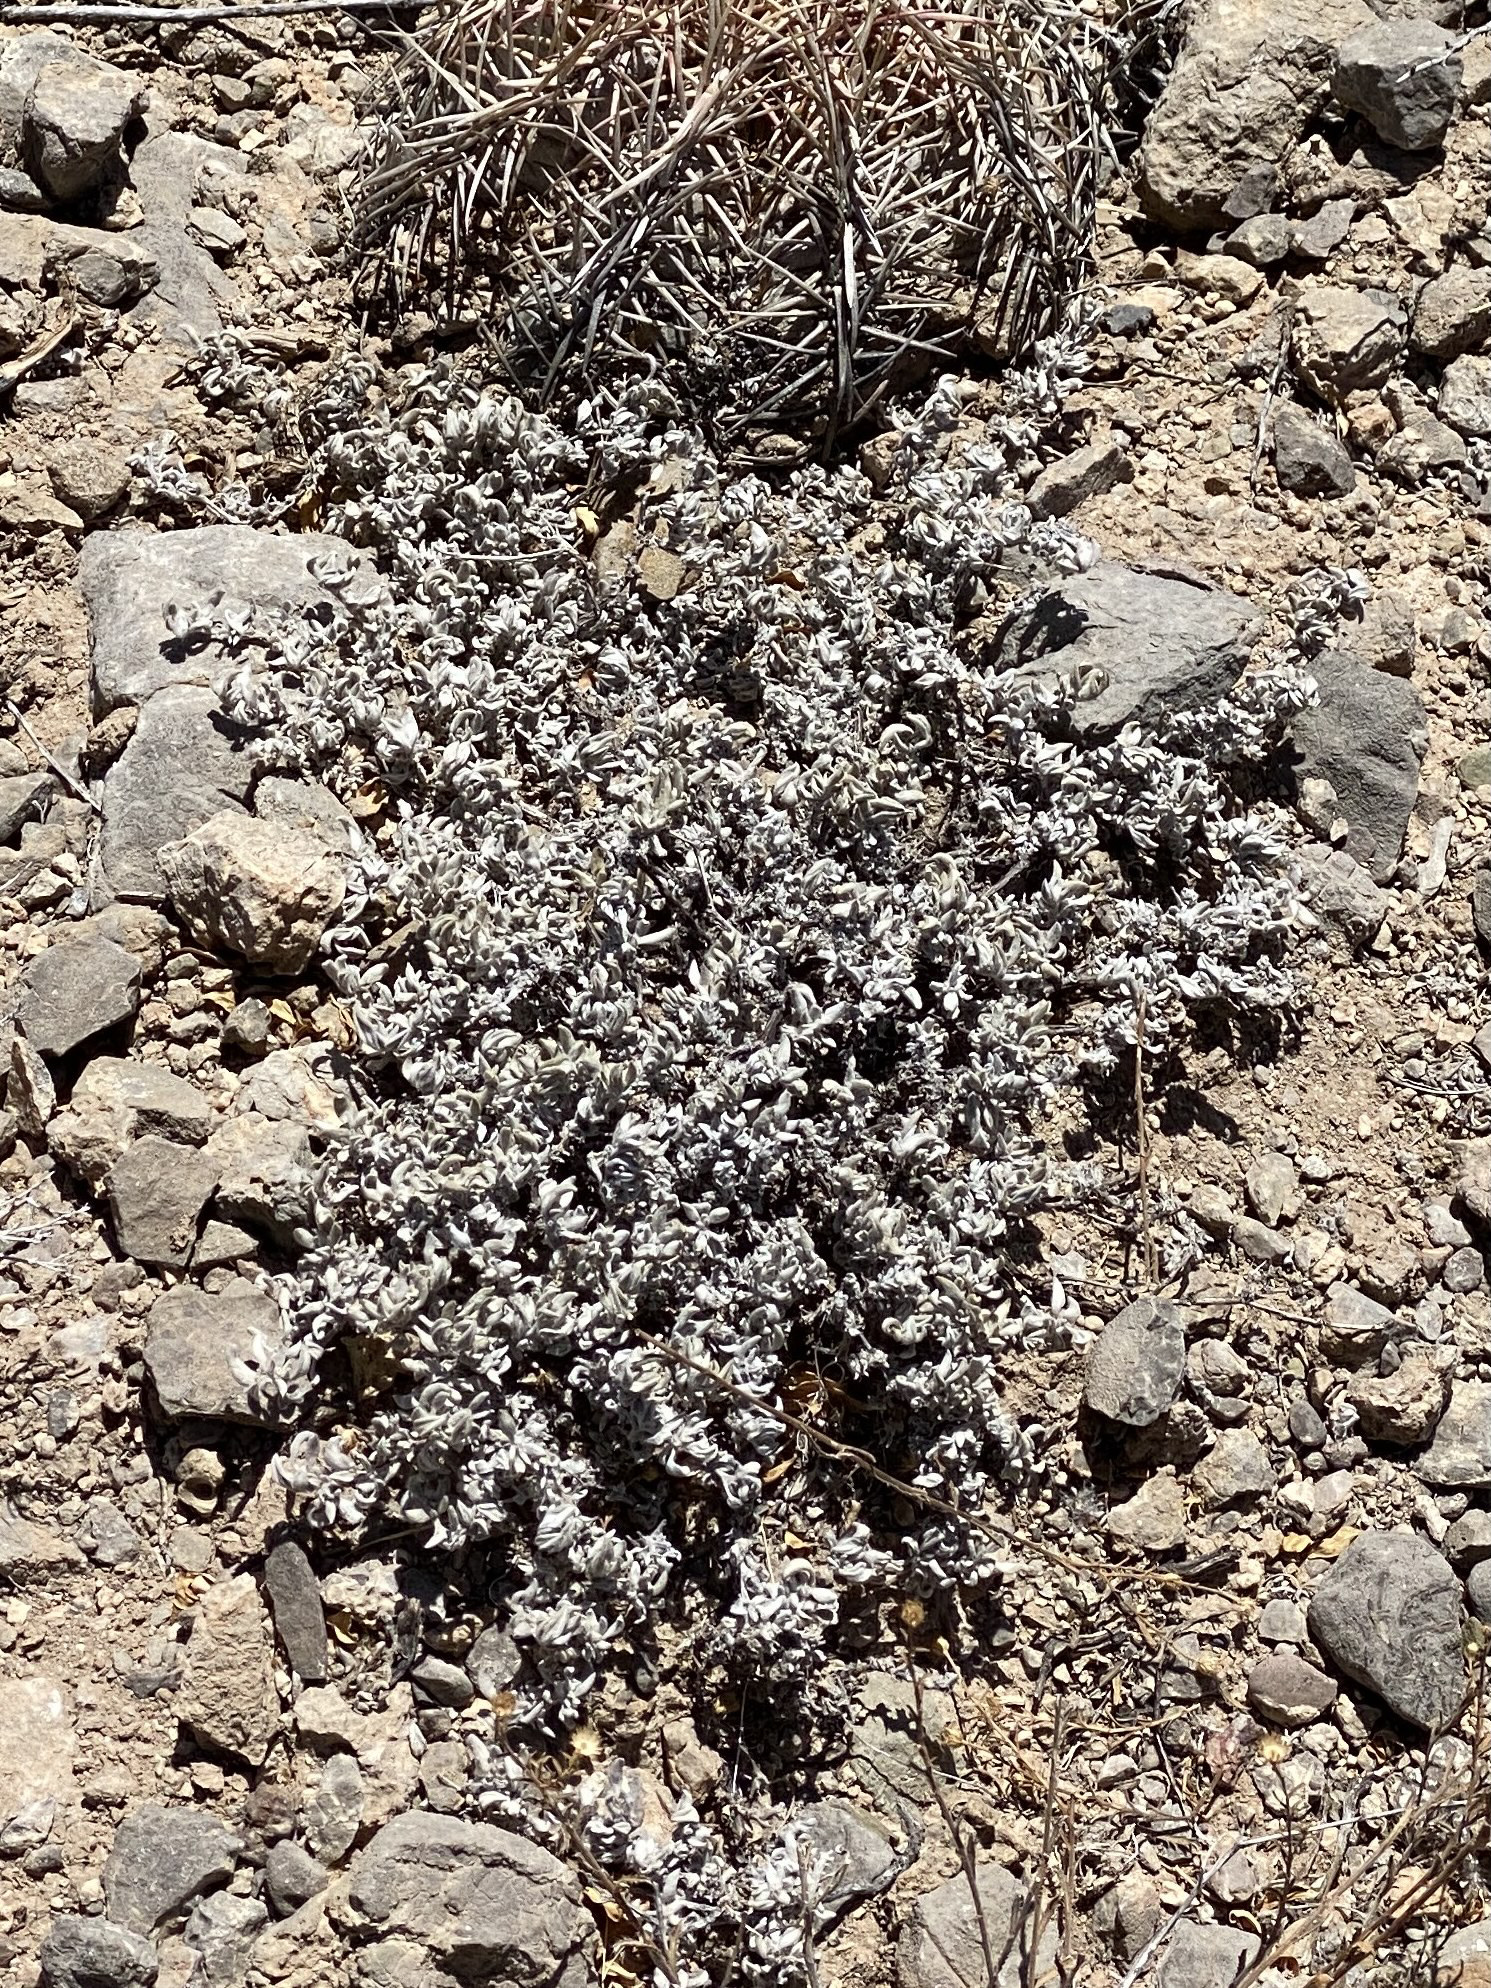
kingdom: Plantae
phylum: Tracheophyta
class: Magnoliopsida
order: Boraginales
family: Ehretiaceae
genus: Tiquilia
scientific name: Tiquilia canescens
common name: Hairy tiquilia
